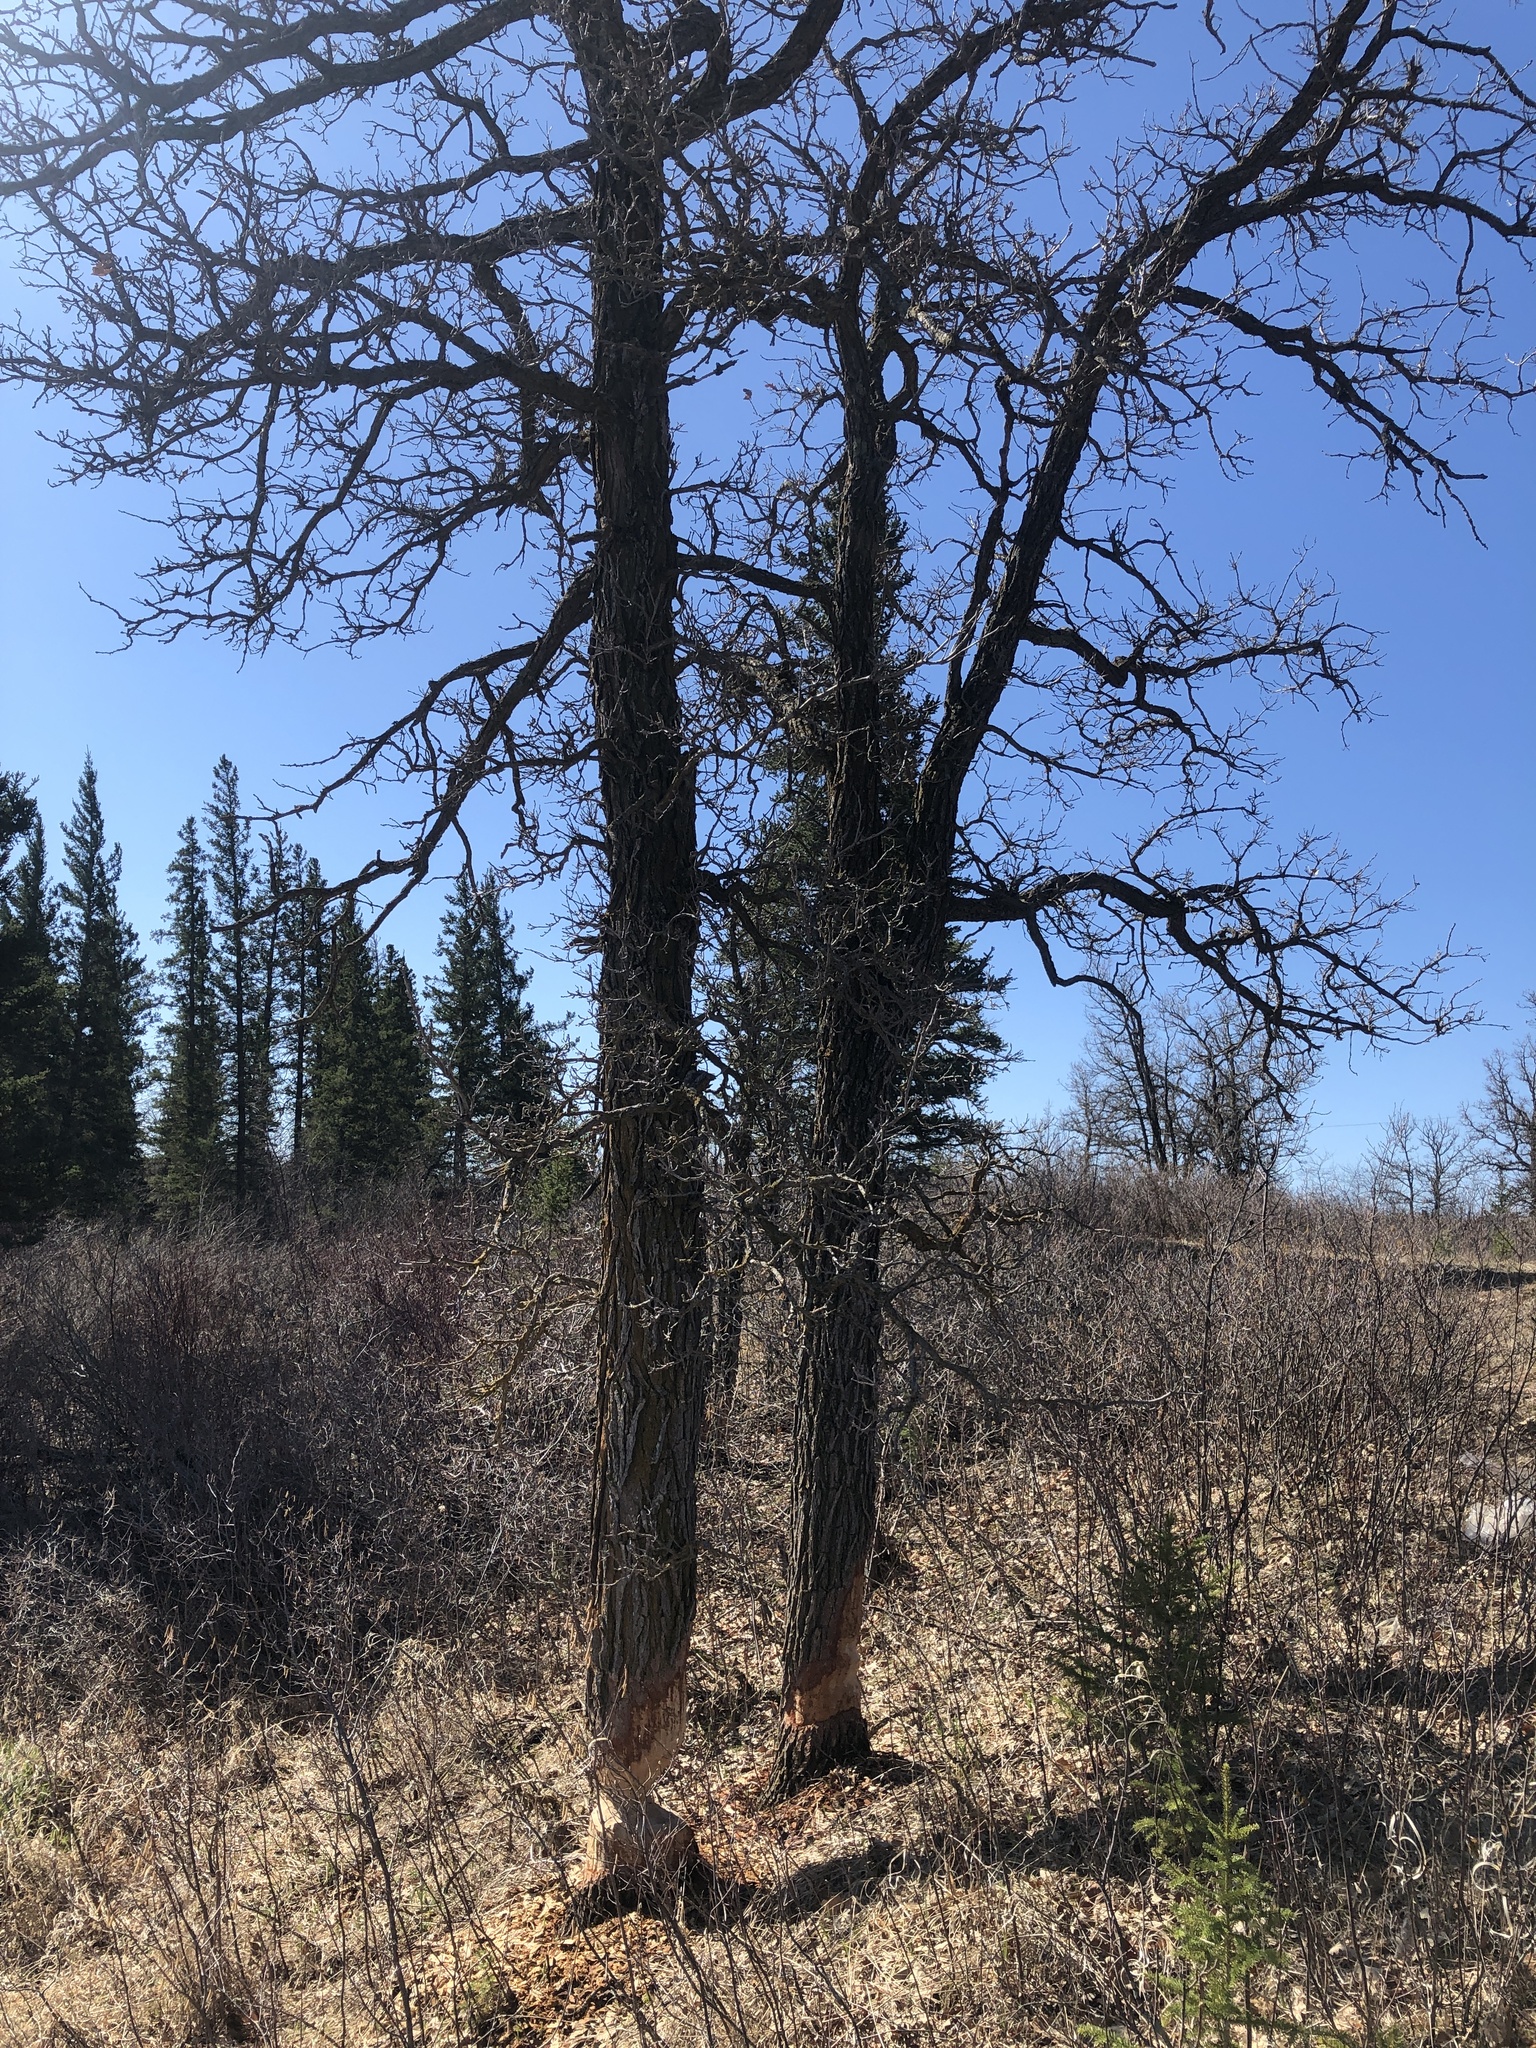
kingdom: Plantae
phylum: Tracheophyta
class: Magnoliopsida
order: Fagales
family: Fagaceae
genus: Quercus
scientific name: Quercus macrocarpa
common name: Bur oak
